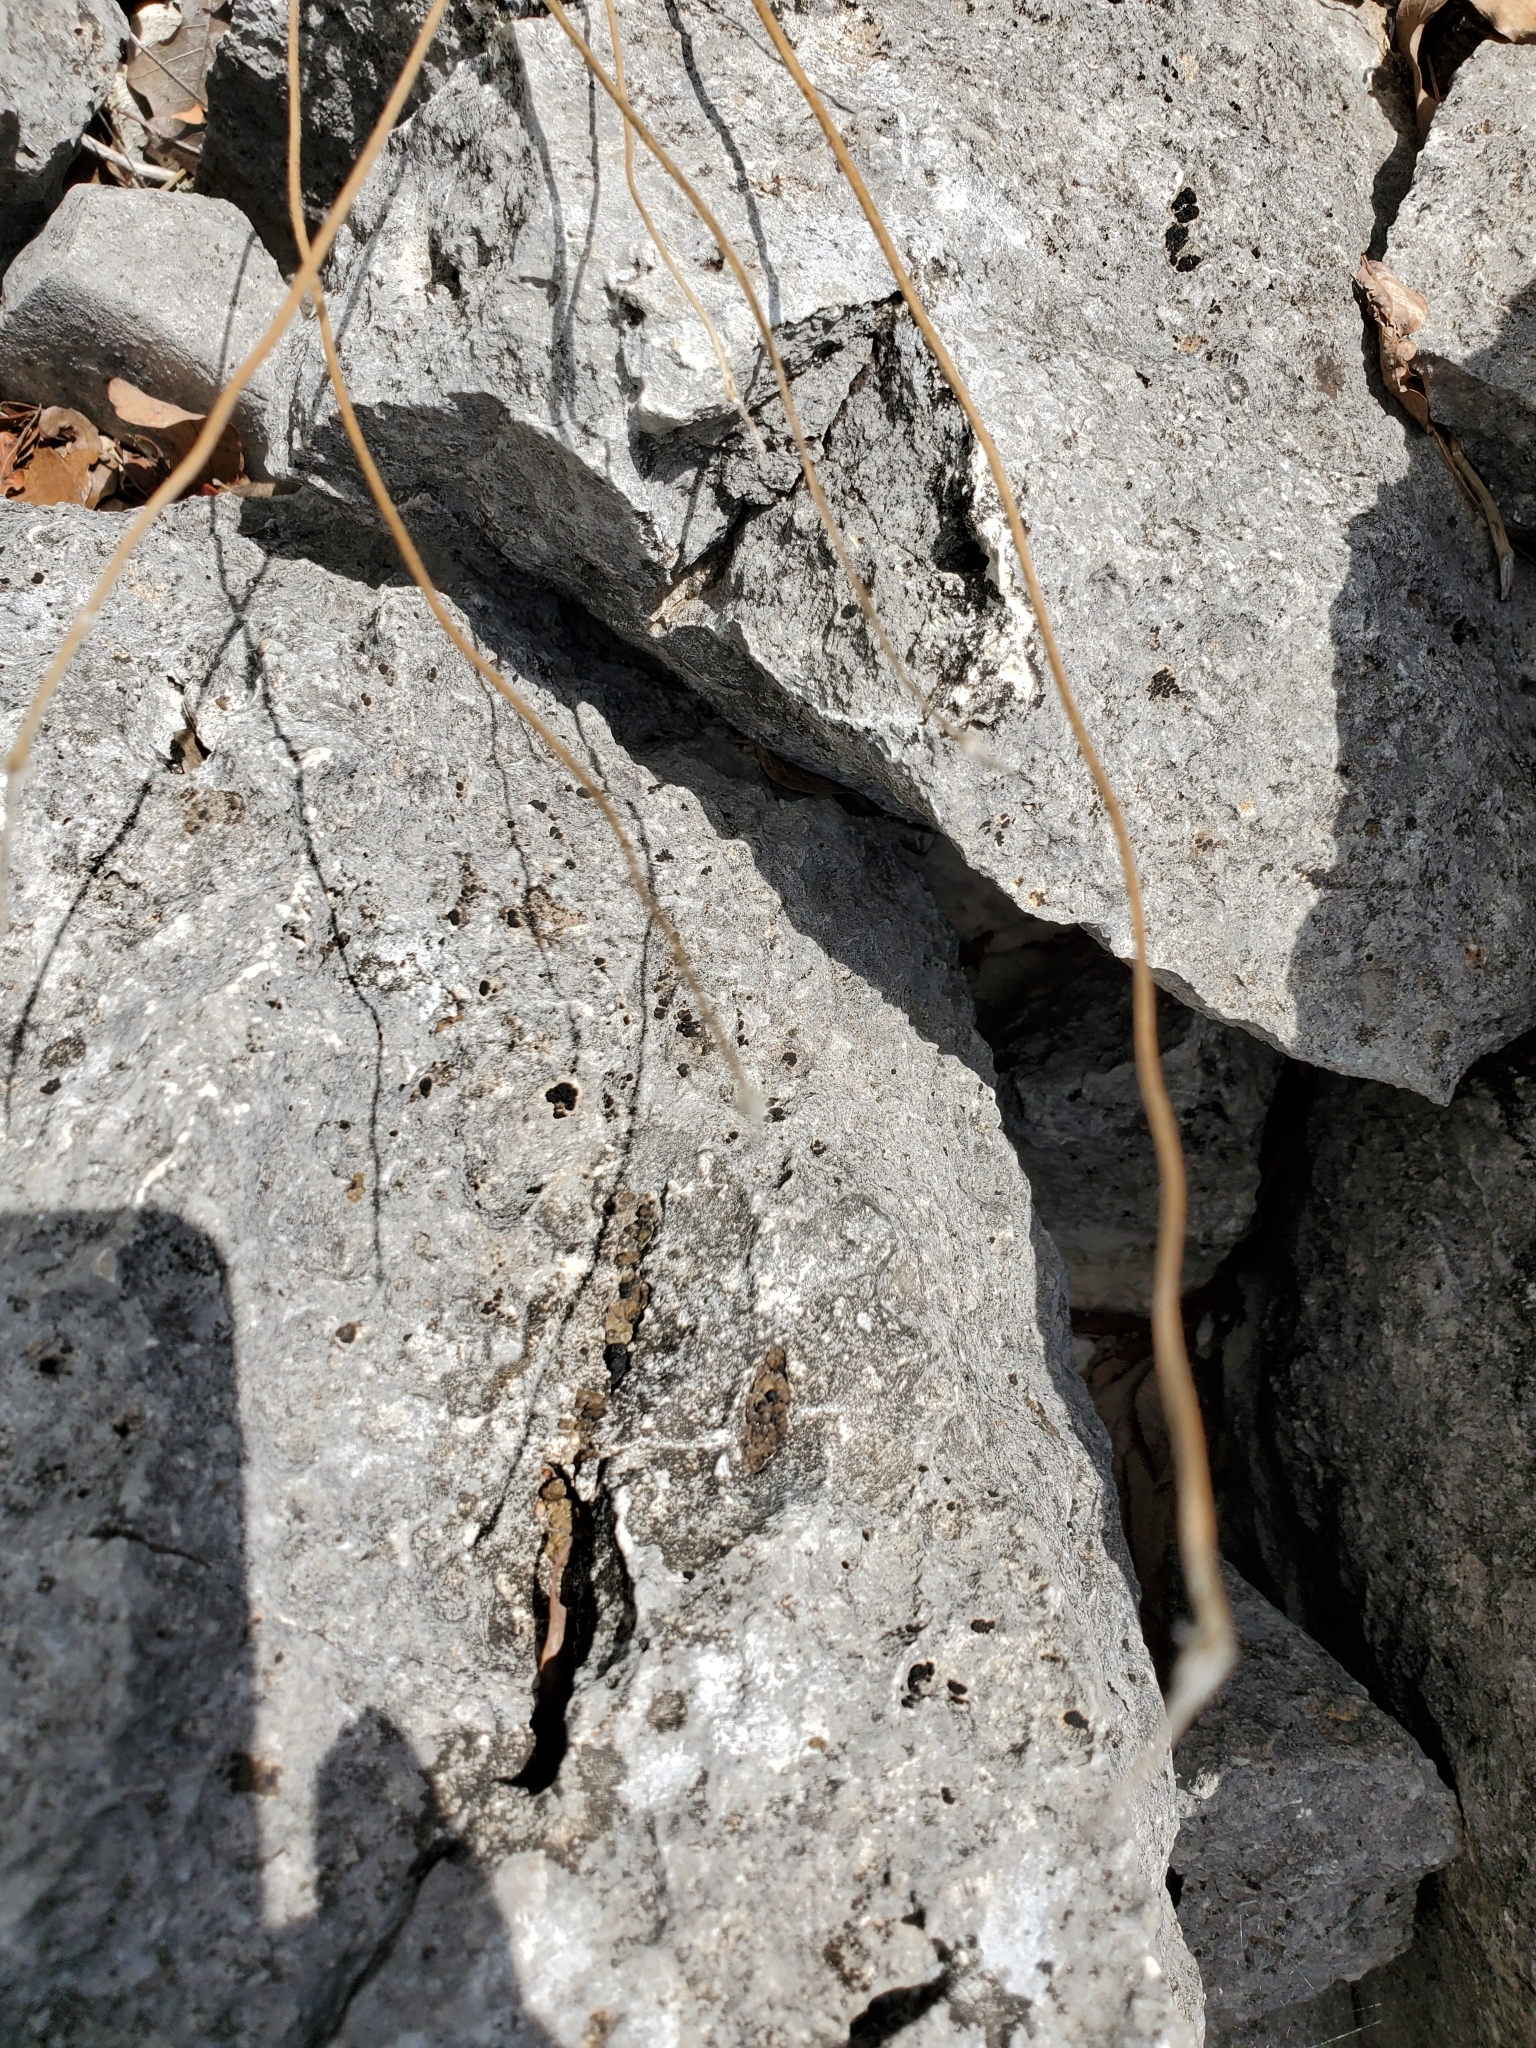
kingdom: Plantae
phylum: Tracheophyta
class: Magnoliopsida
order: Ranunculales
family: Ranunculaceae
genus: Anemone
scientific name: Anemone edwardsiana
